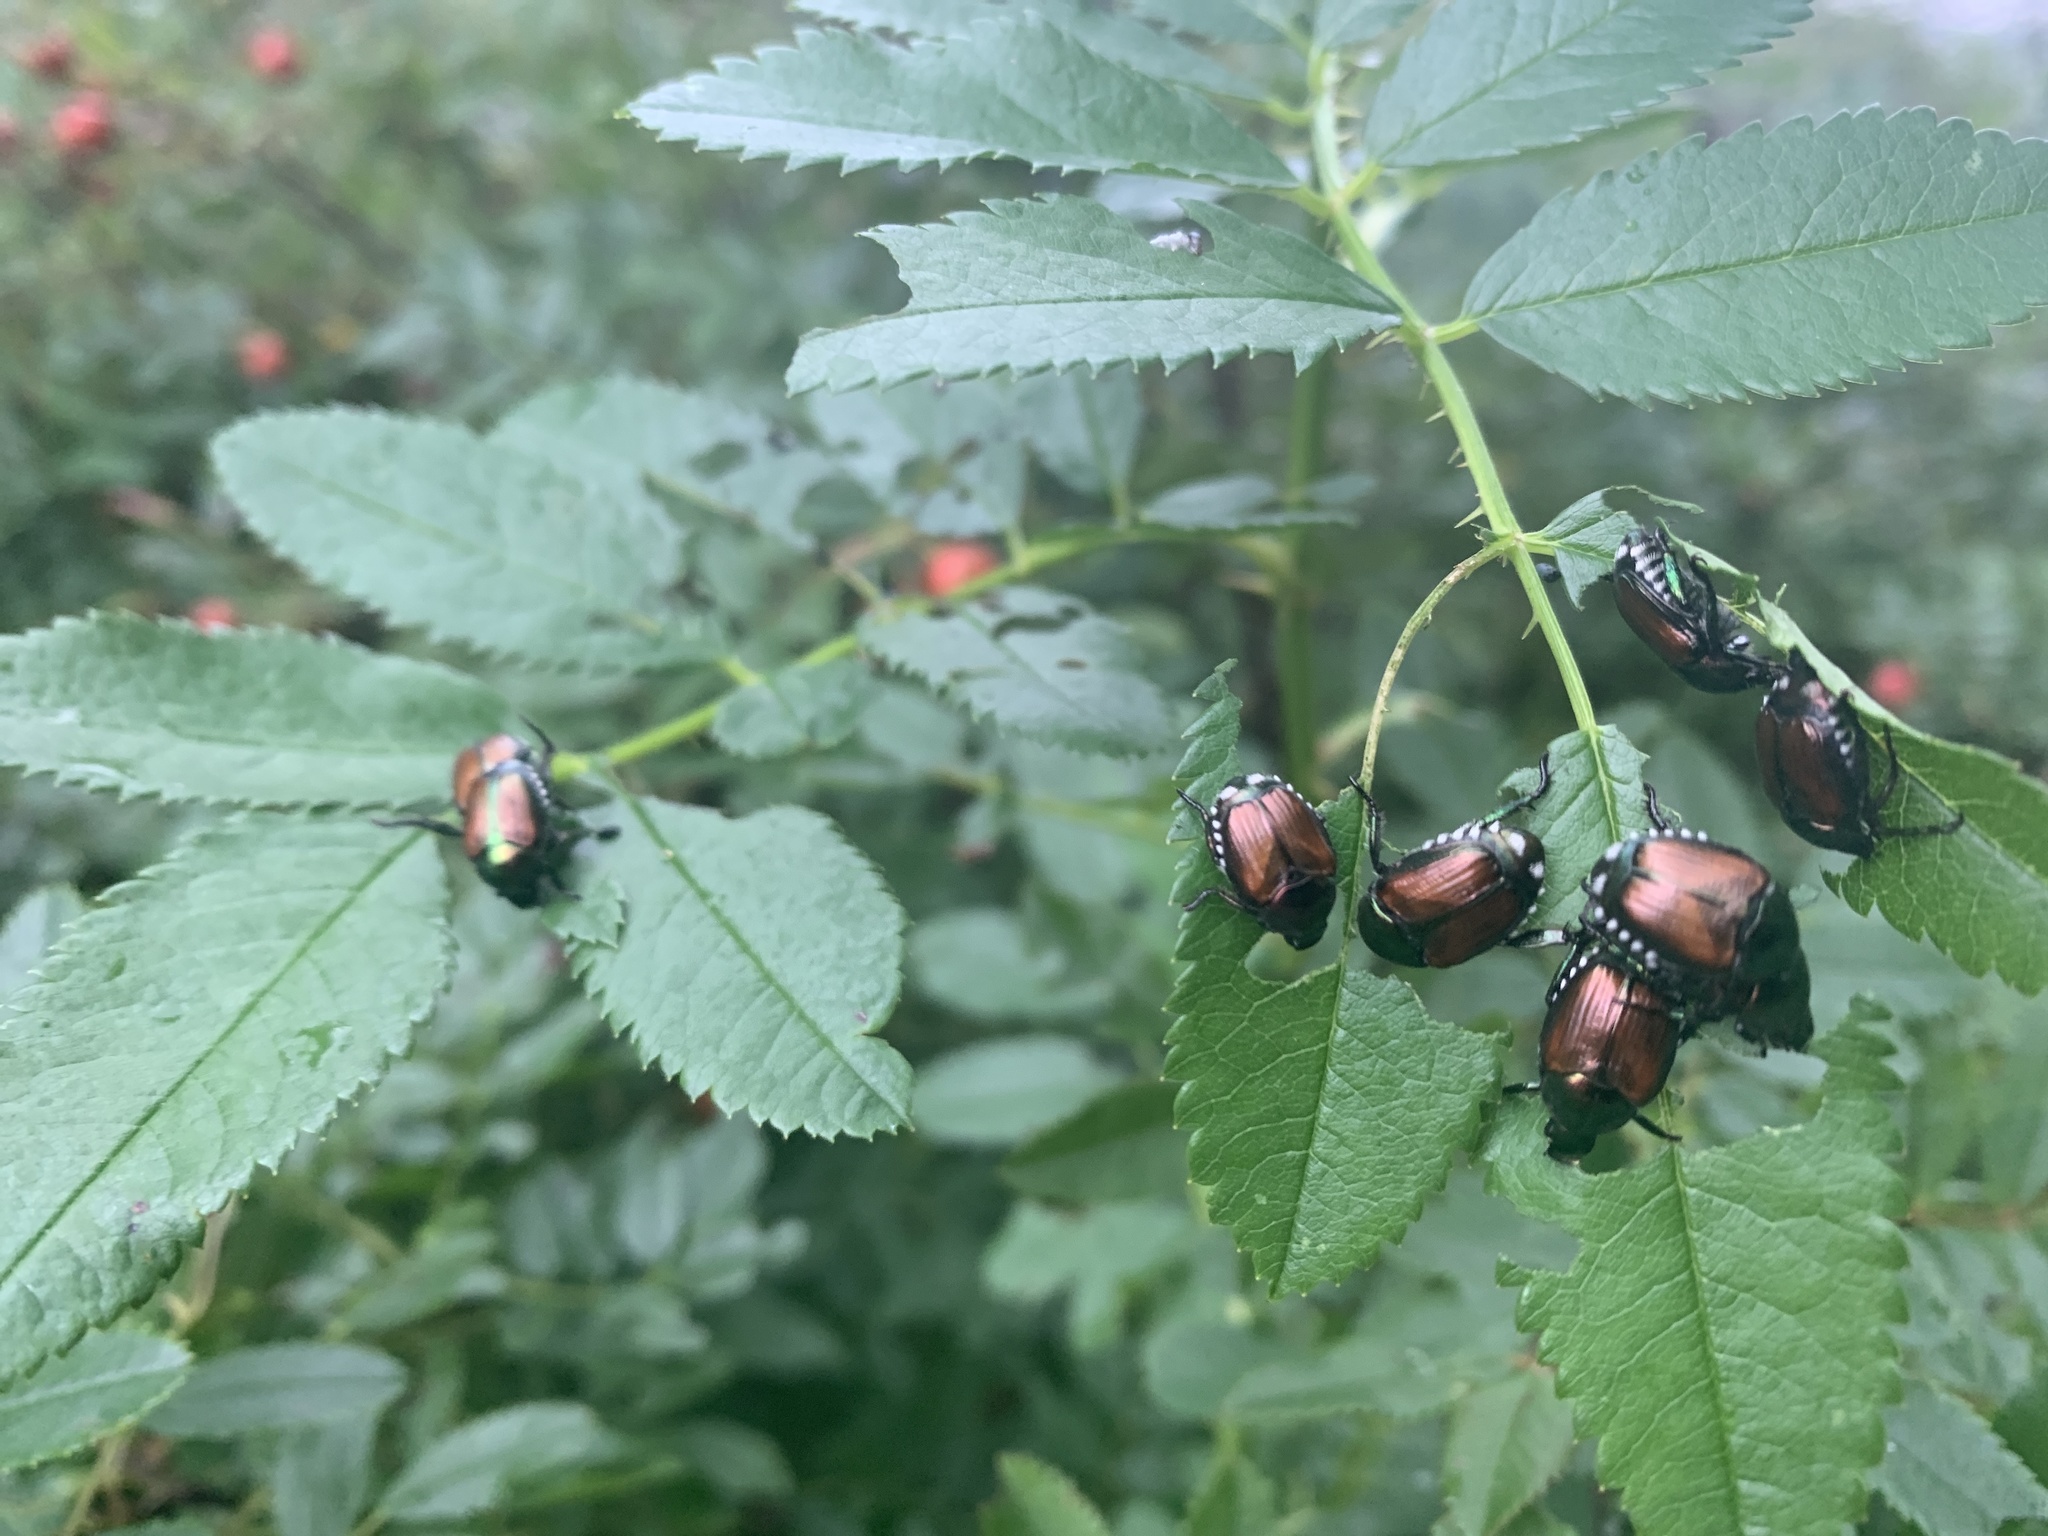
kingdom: Animalia
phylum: Arthropoda
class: Insecta
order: Coleoptera
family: Scarabaeidae
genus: Popillia
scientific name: Popillia japonica
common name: Japanese beetle
